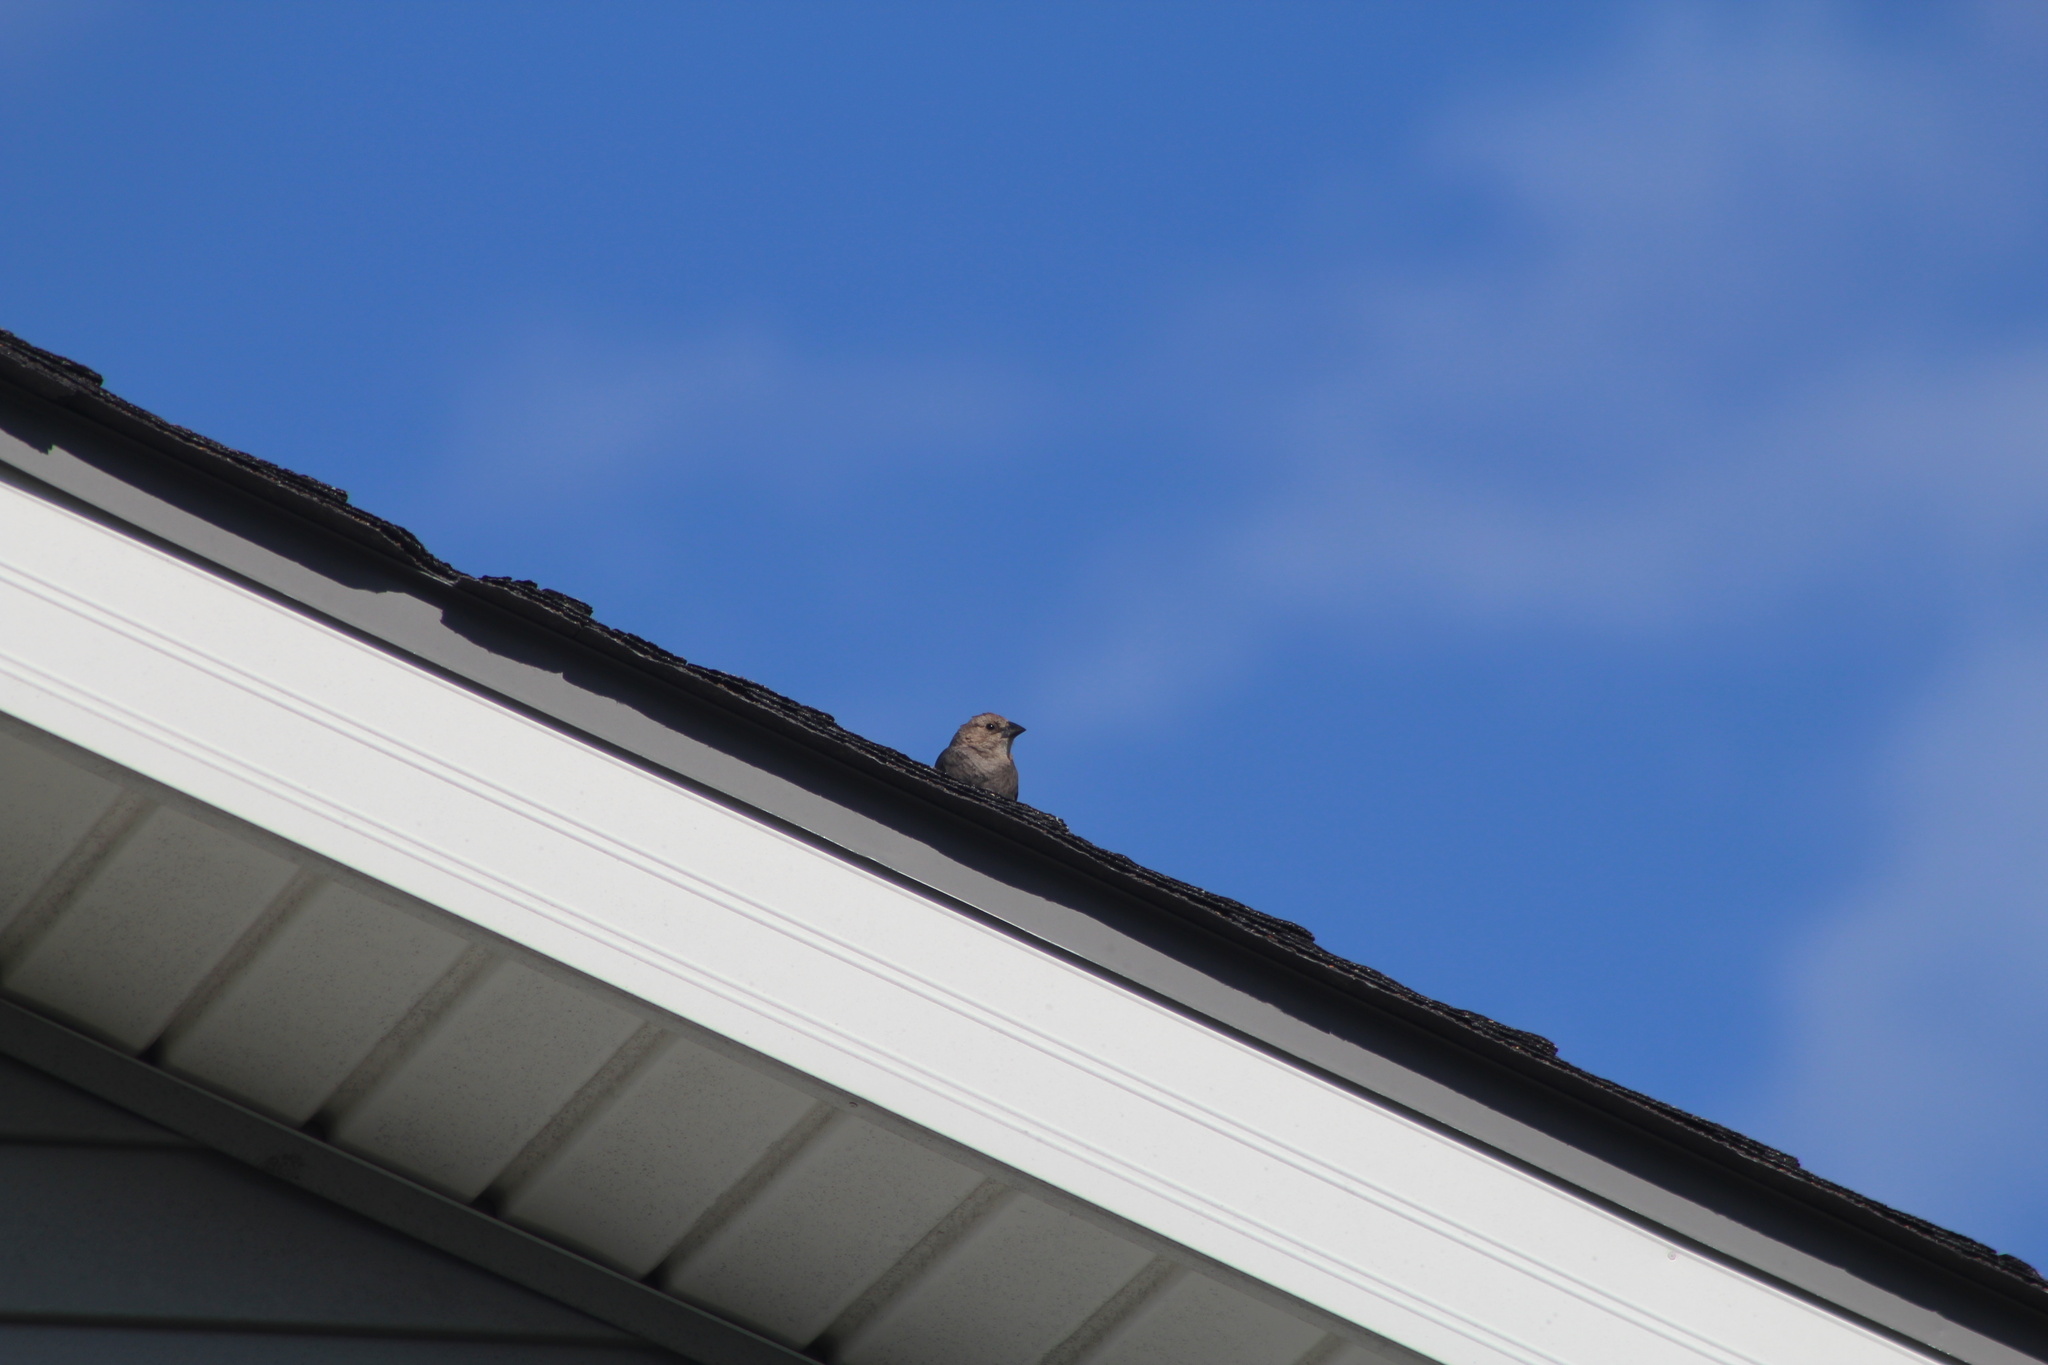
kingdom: Animalia
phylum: Chordata
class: Aves
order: Passeriformes
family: Icteridae
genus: Molothrus
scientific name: Molothrus ater
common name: Brown-headed cowbird
